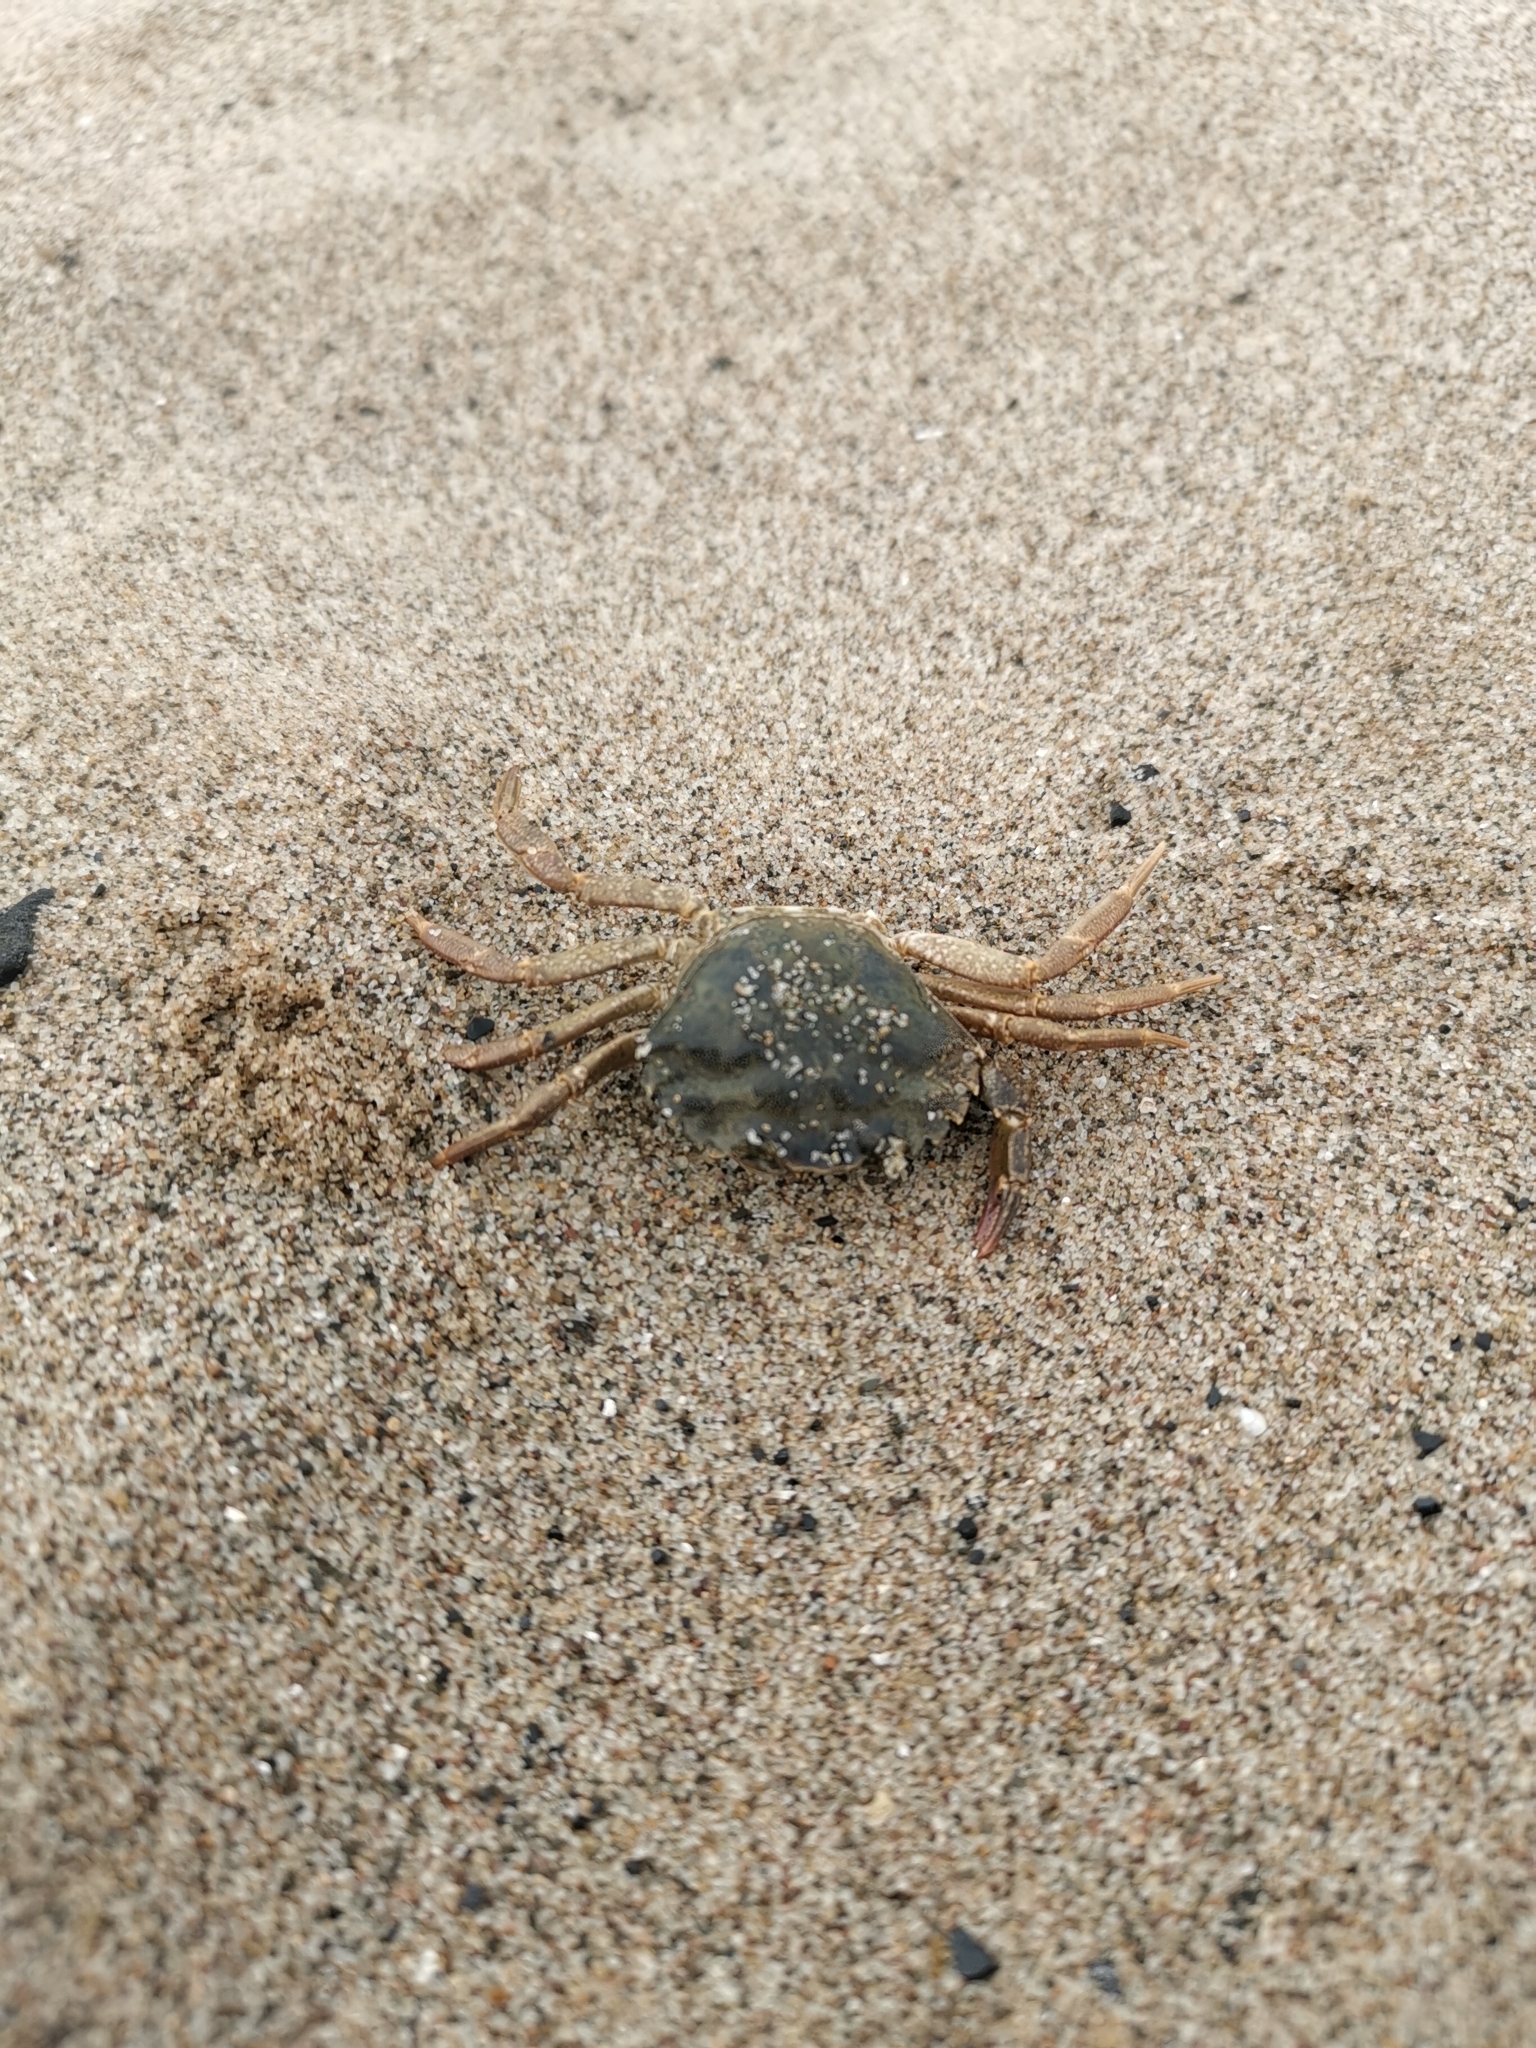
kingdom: Animalia
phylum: Arthropoda
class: Malacostraca
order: Decapoda
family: Carcinidae
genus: Carcinus
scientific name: Carcinus maenas
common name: European green crab
